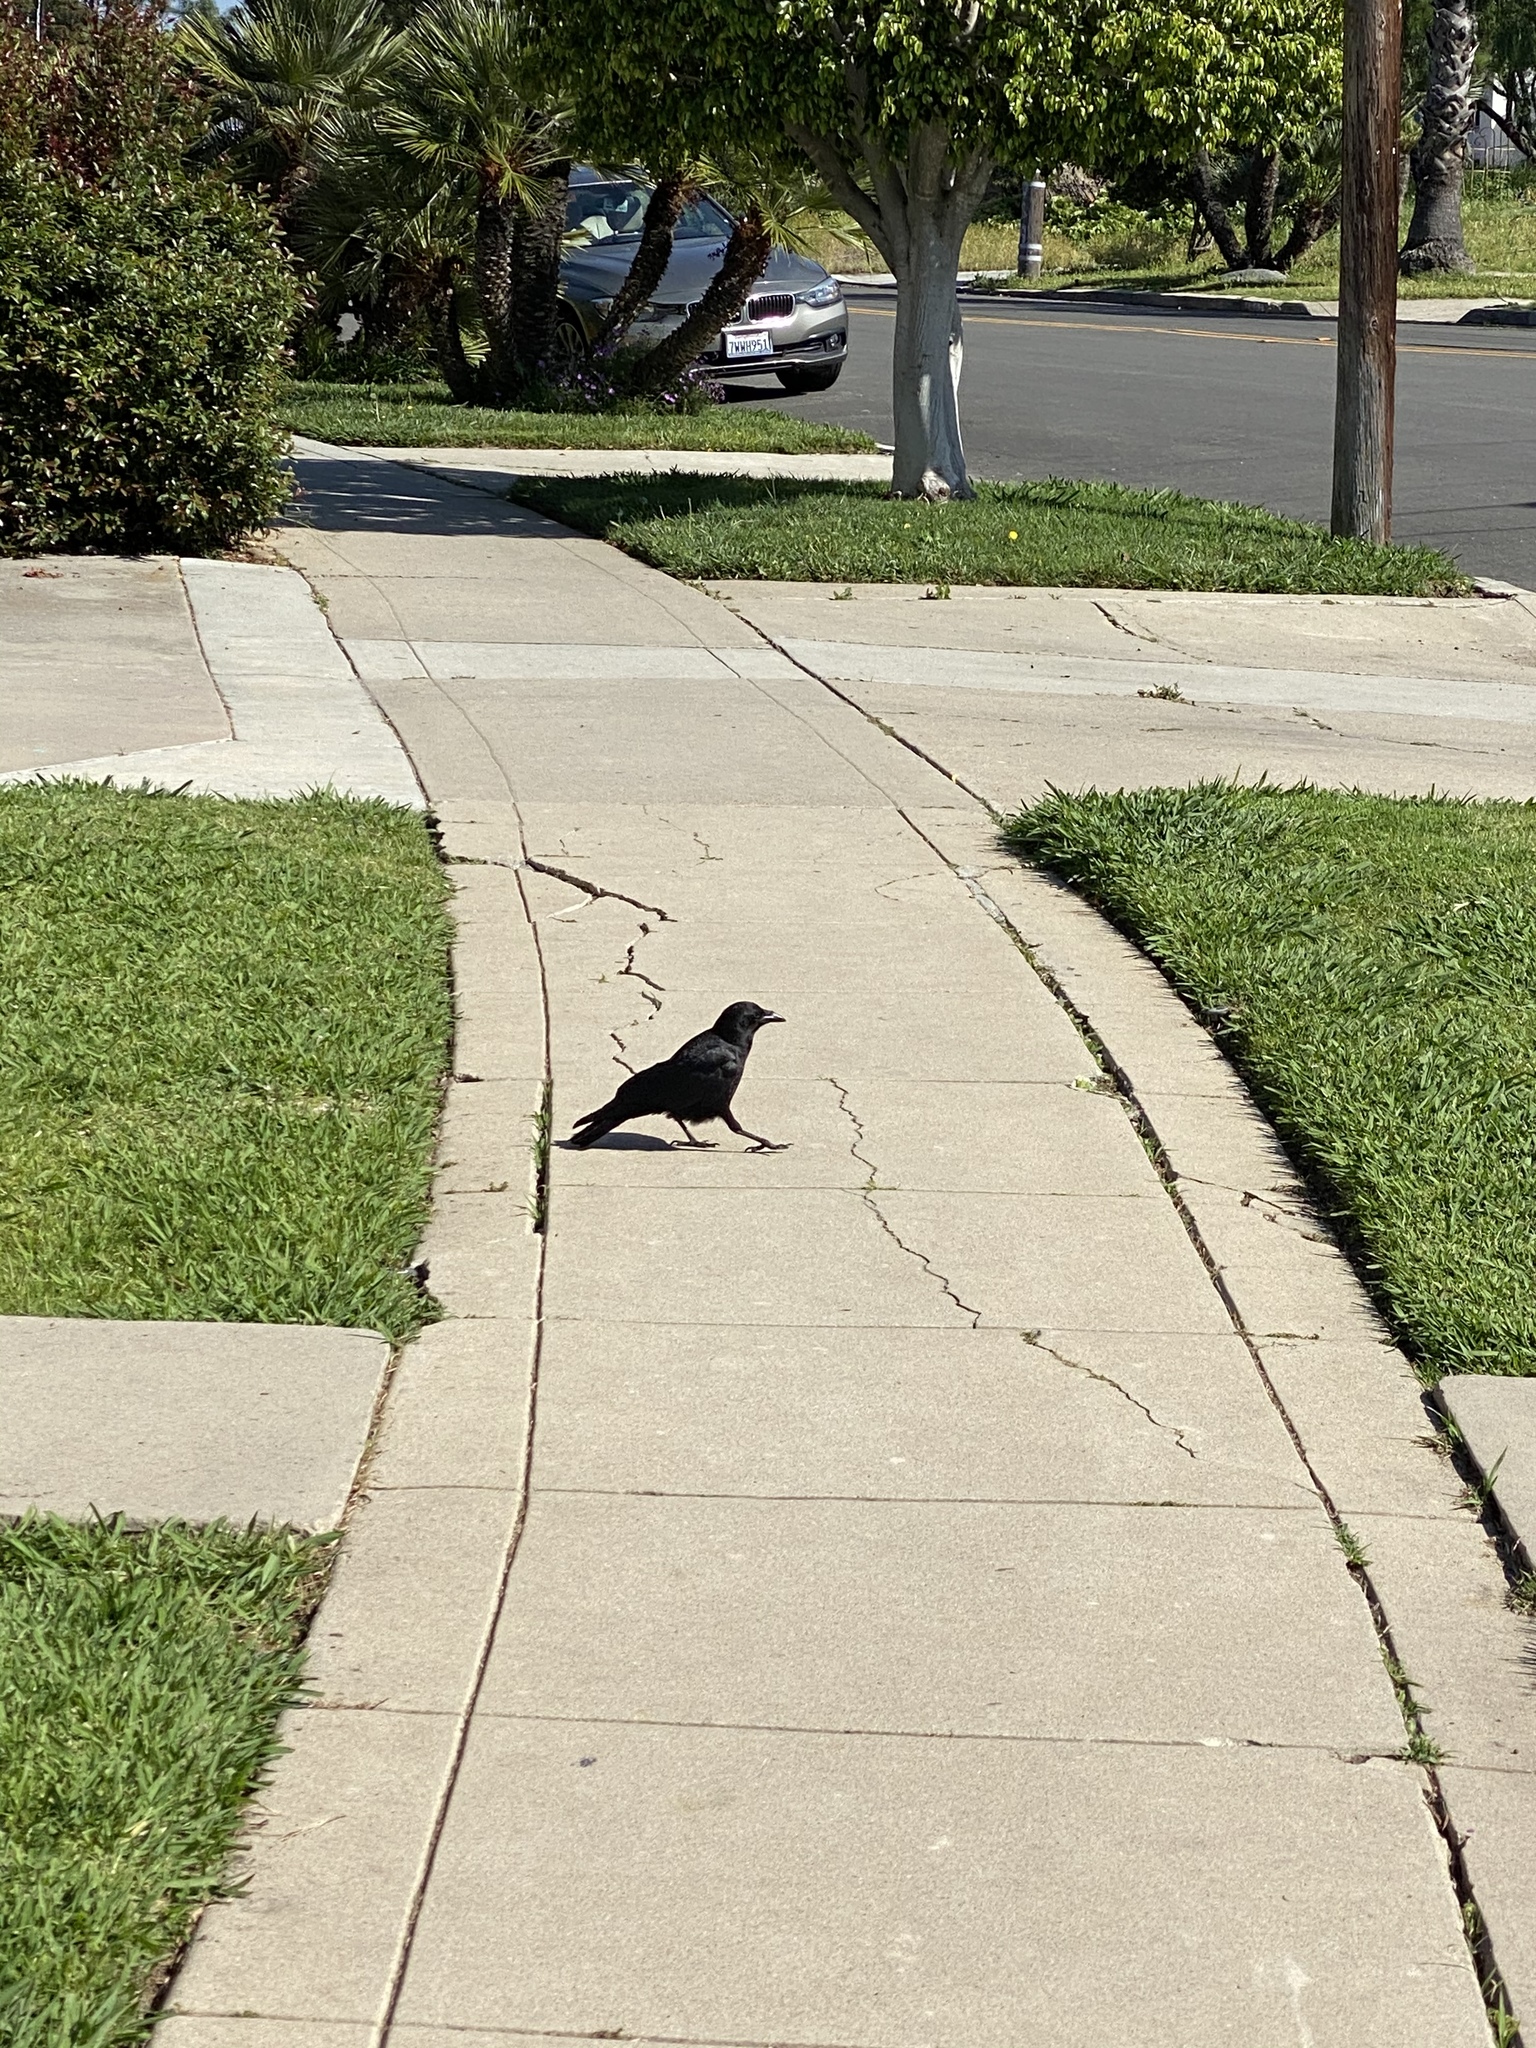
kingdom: Animalia
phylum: Chordata
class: Aves
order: Passeriformes
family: Corvidae
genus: Corvus
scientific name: Corvus brachyrhynchos
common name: American crow
